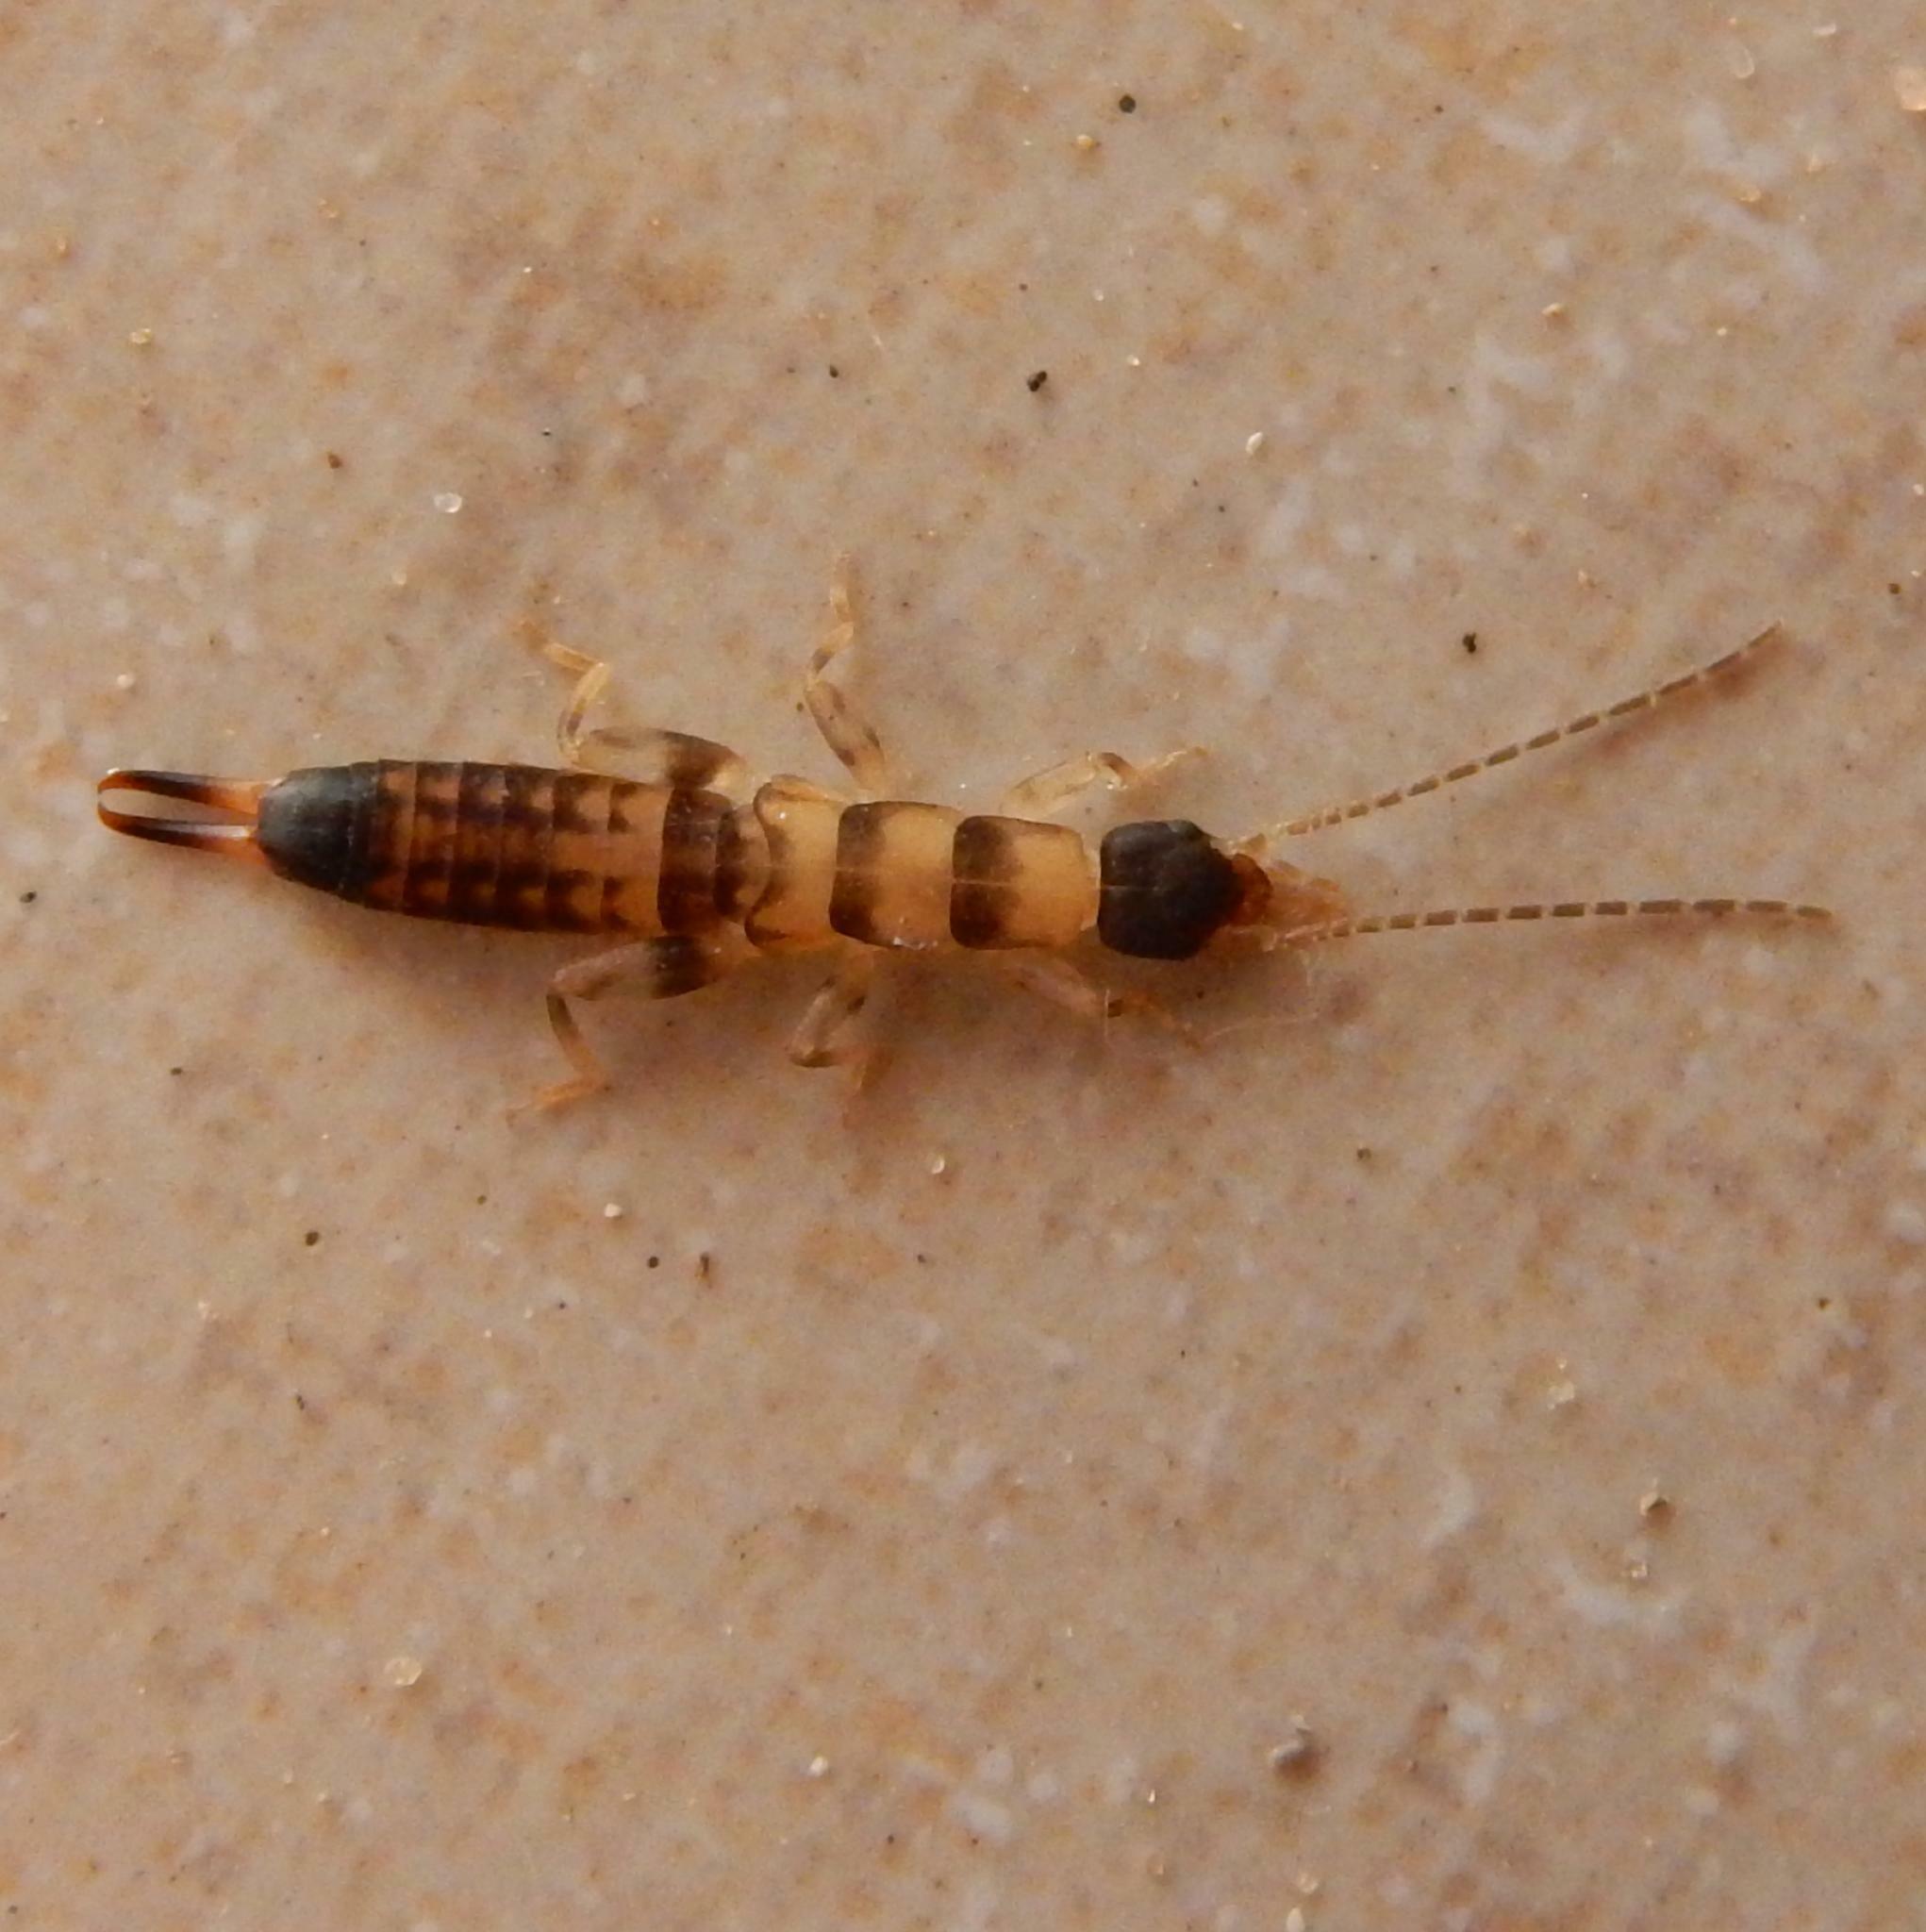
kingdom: Animalia
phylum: Arthropoda
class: Insecta
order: Dermaptera
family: Pygidicranidae
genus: Blandex
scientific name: Blandex variegatus
